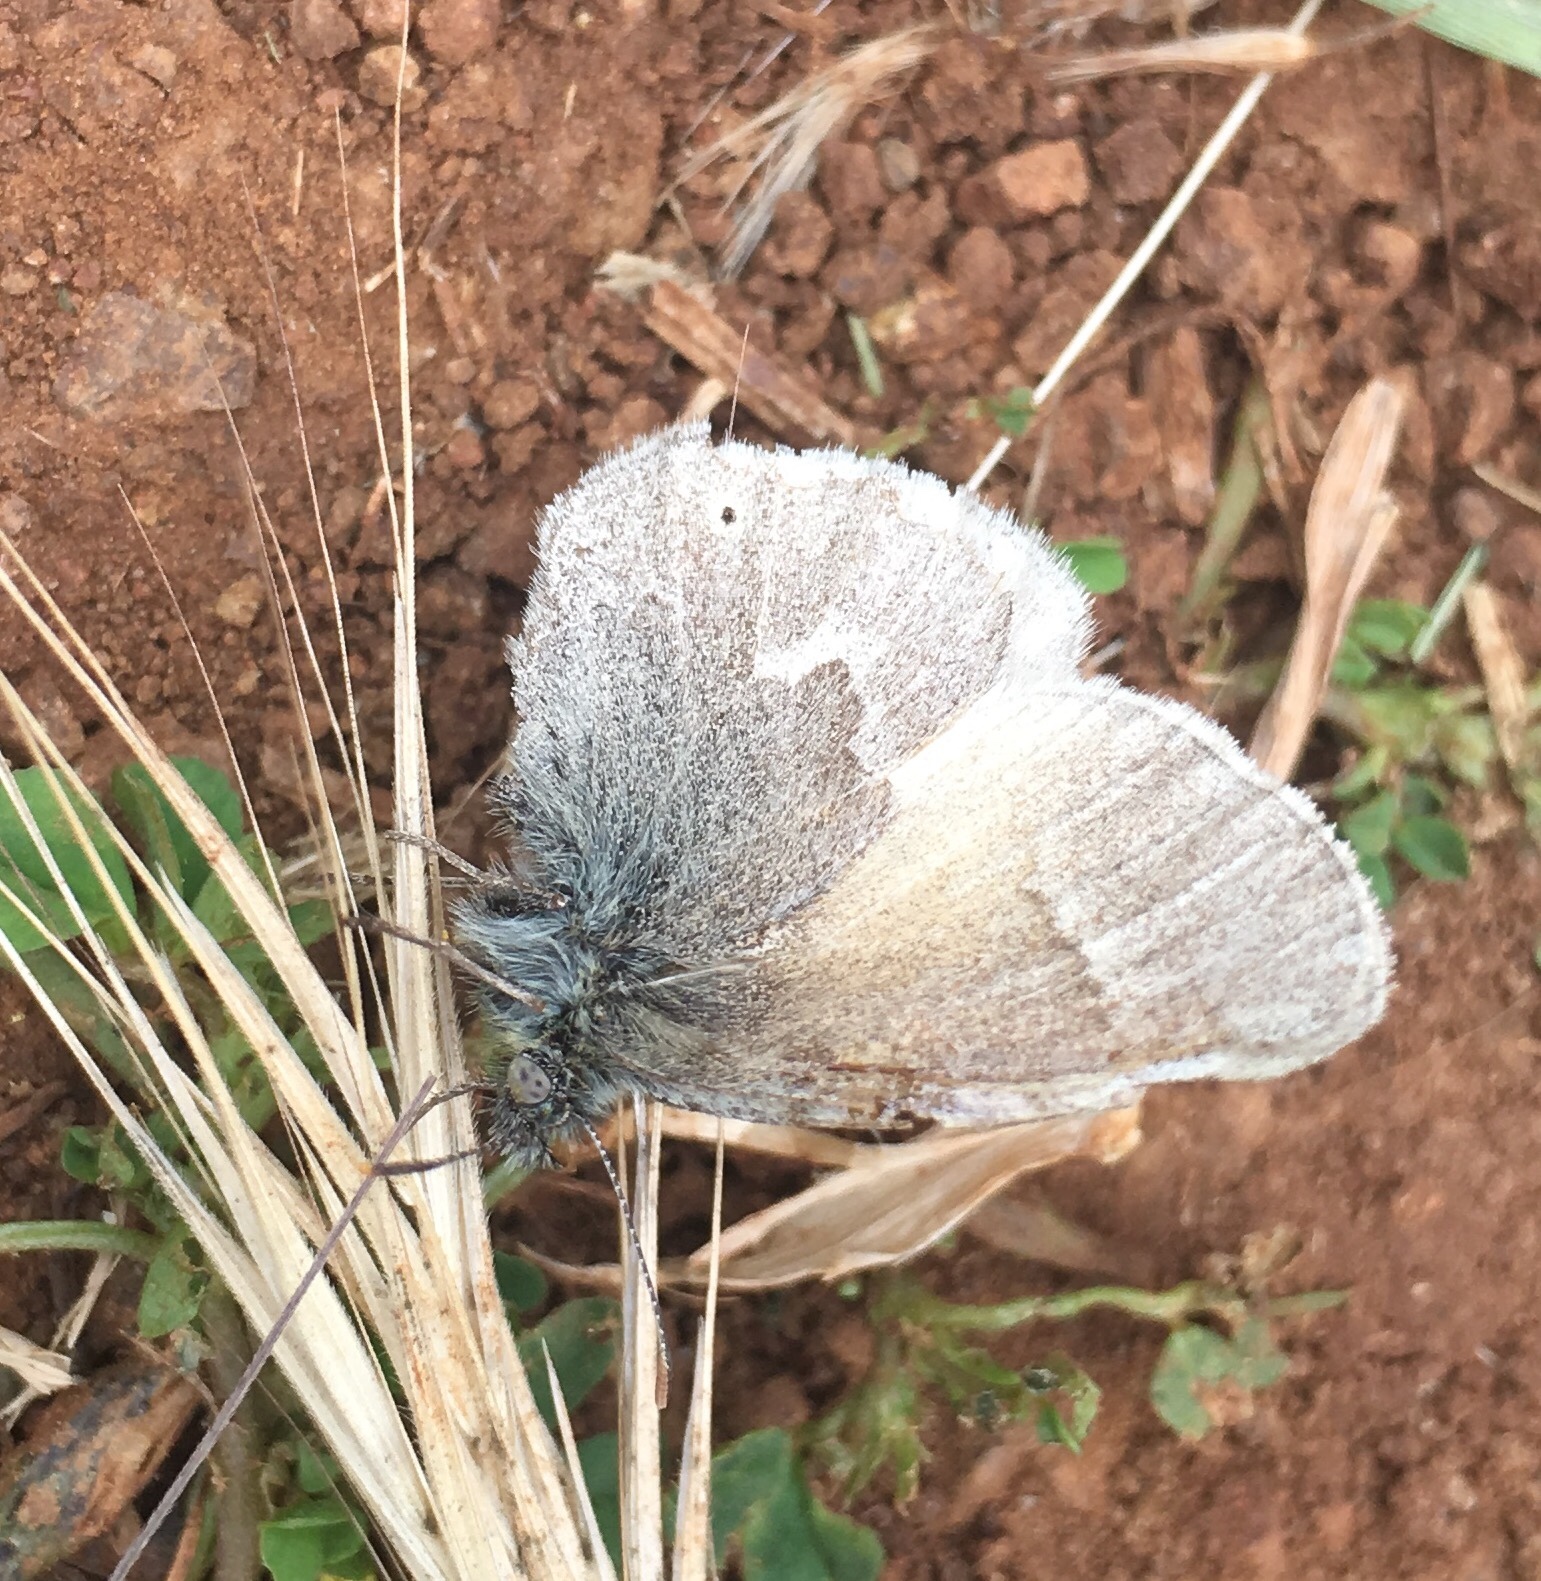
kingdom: Animalia
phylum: Arthropoda
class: Insecta
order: Lepidoptera
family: Nymphalidae
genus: Coenonympha
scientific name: Coenonympha california
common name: Common ringlet
